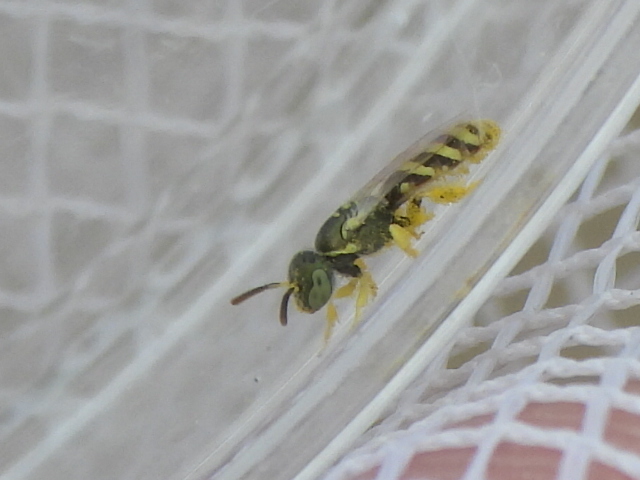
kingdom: Animalia
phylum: Arthropoda
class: Insecta
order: Hymenoptera
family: Halictidae
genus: Ceylalictus
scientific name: Ceylalictus variegatus
